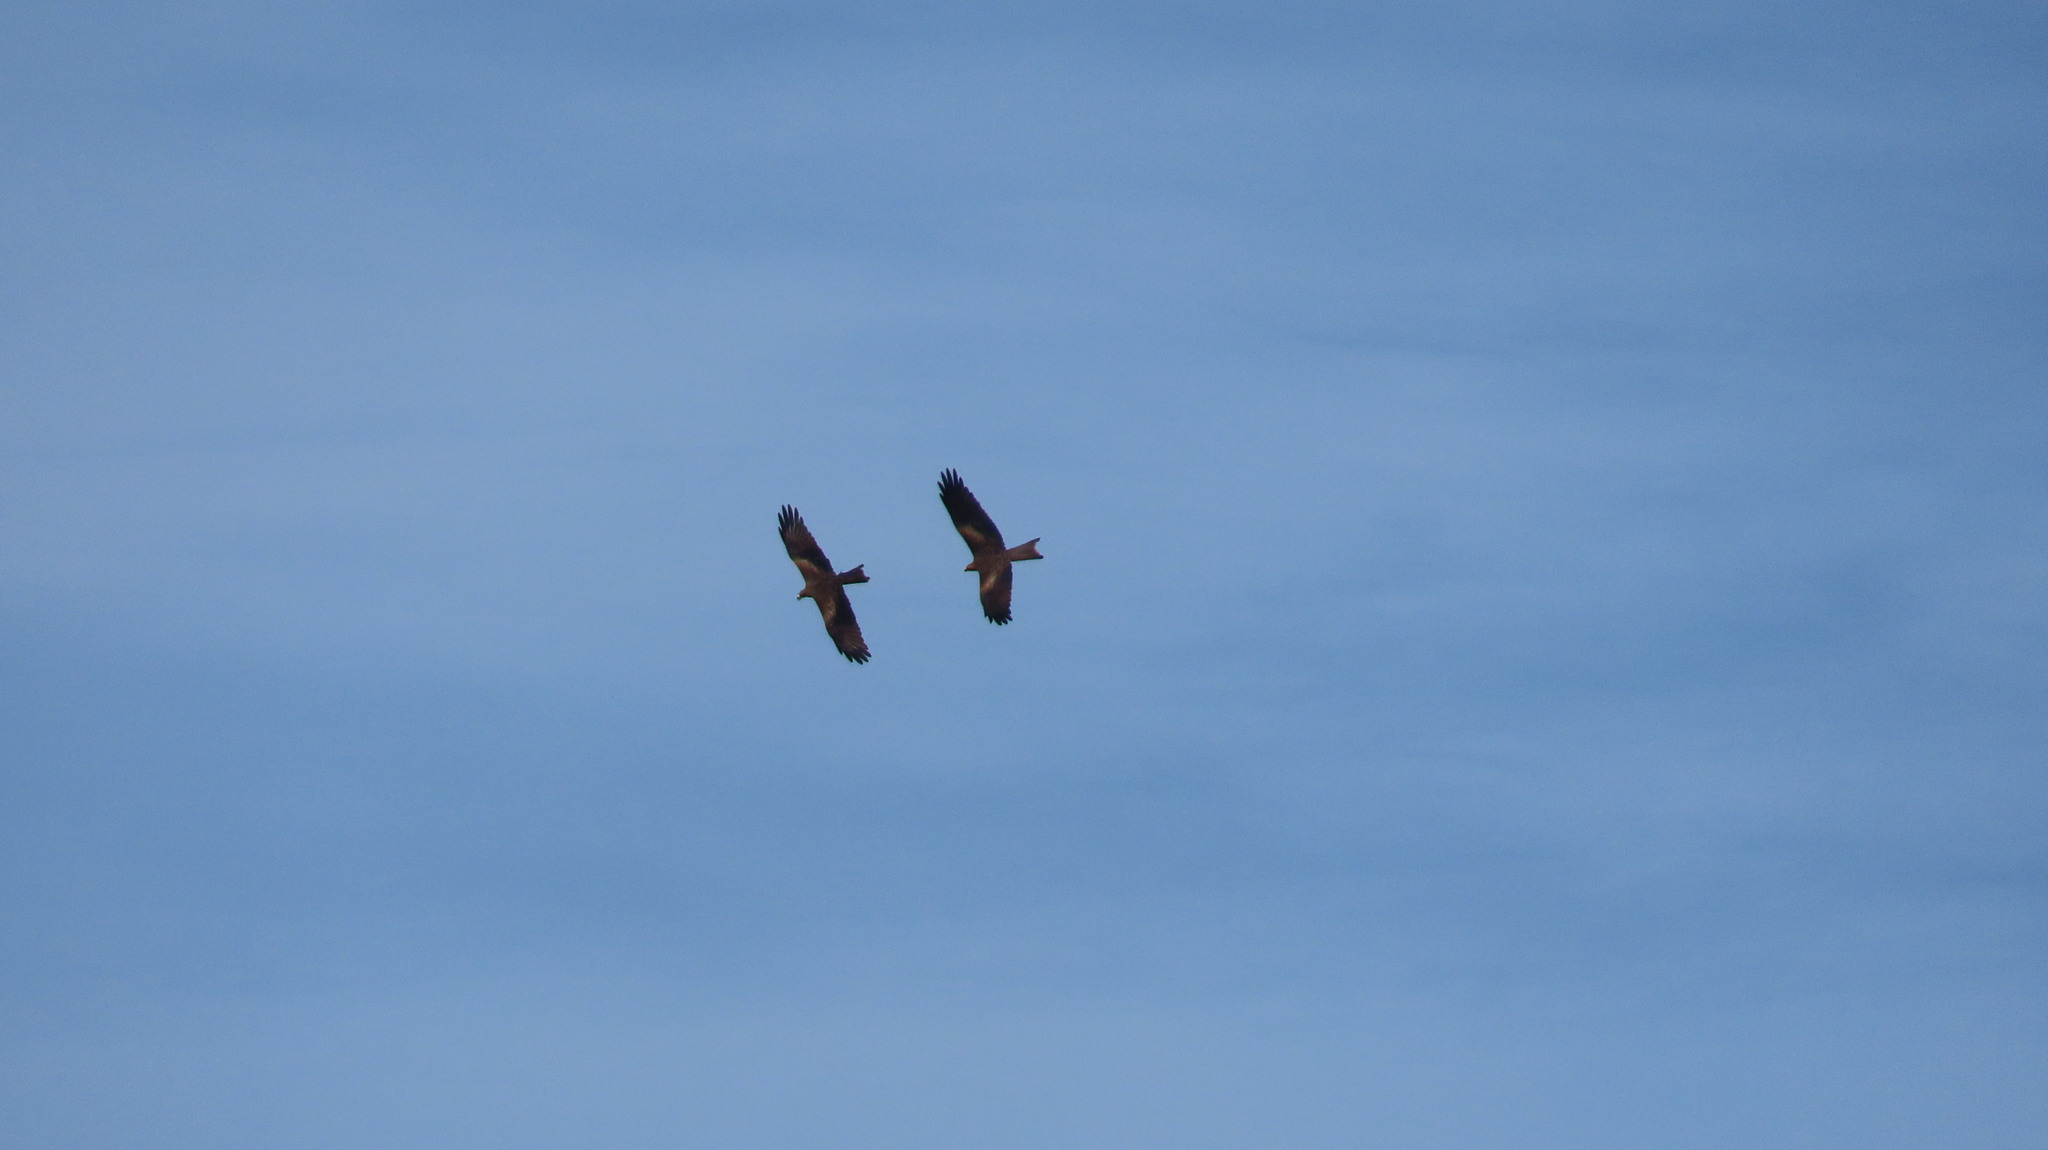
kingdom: Animalia
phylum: Chordata
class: Aves
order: Accipitriformes
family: Accipitridae
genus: Milvus
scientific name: Milvus migrans
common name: Black kite
